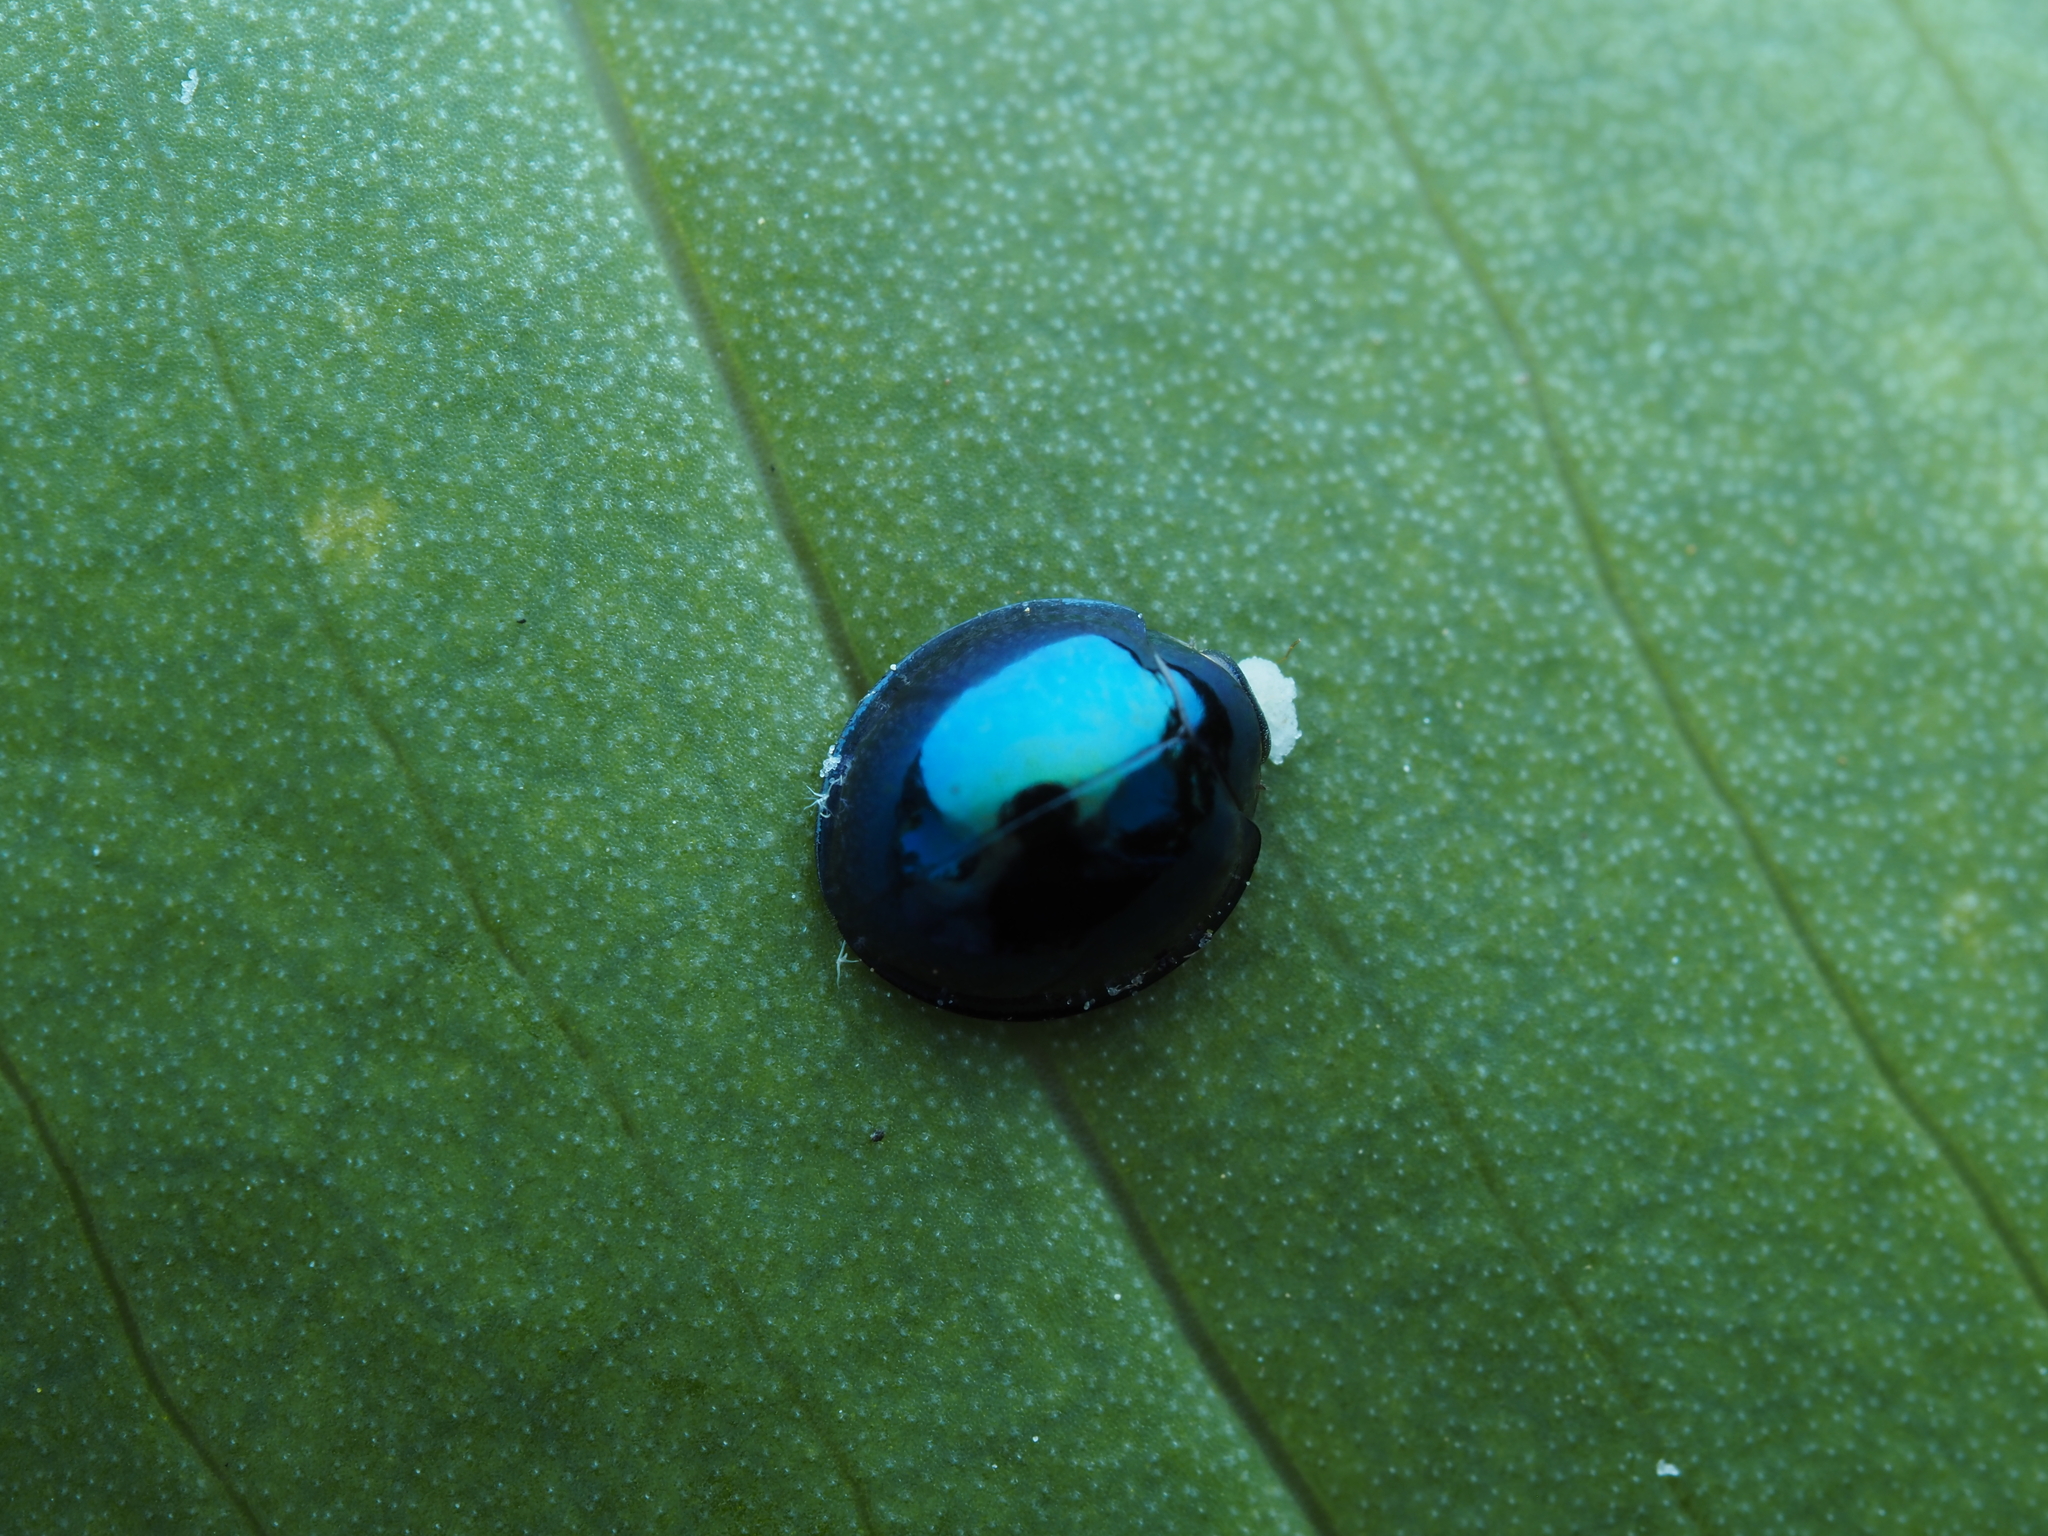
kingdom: Animalia
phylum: Arthropoda
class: Insecta
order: Coleoptera
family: Coccinellidae
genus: Halmus
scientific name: Halmus chalybeus
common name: Steel blue ladybird beetle
